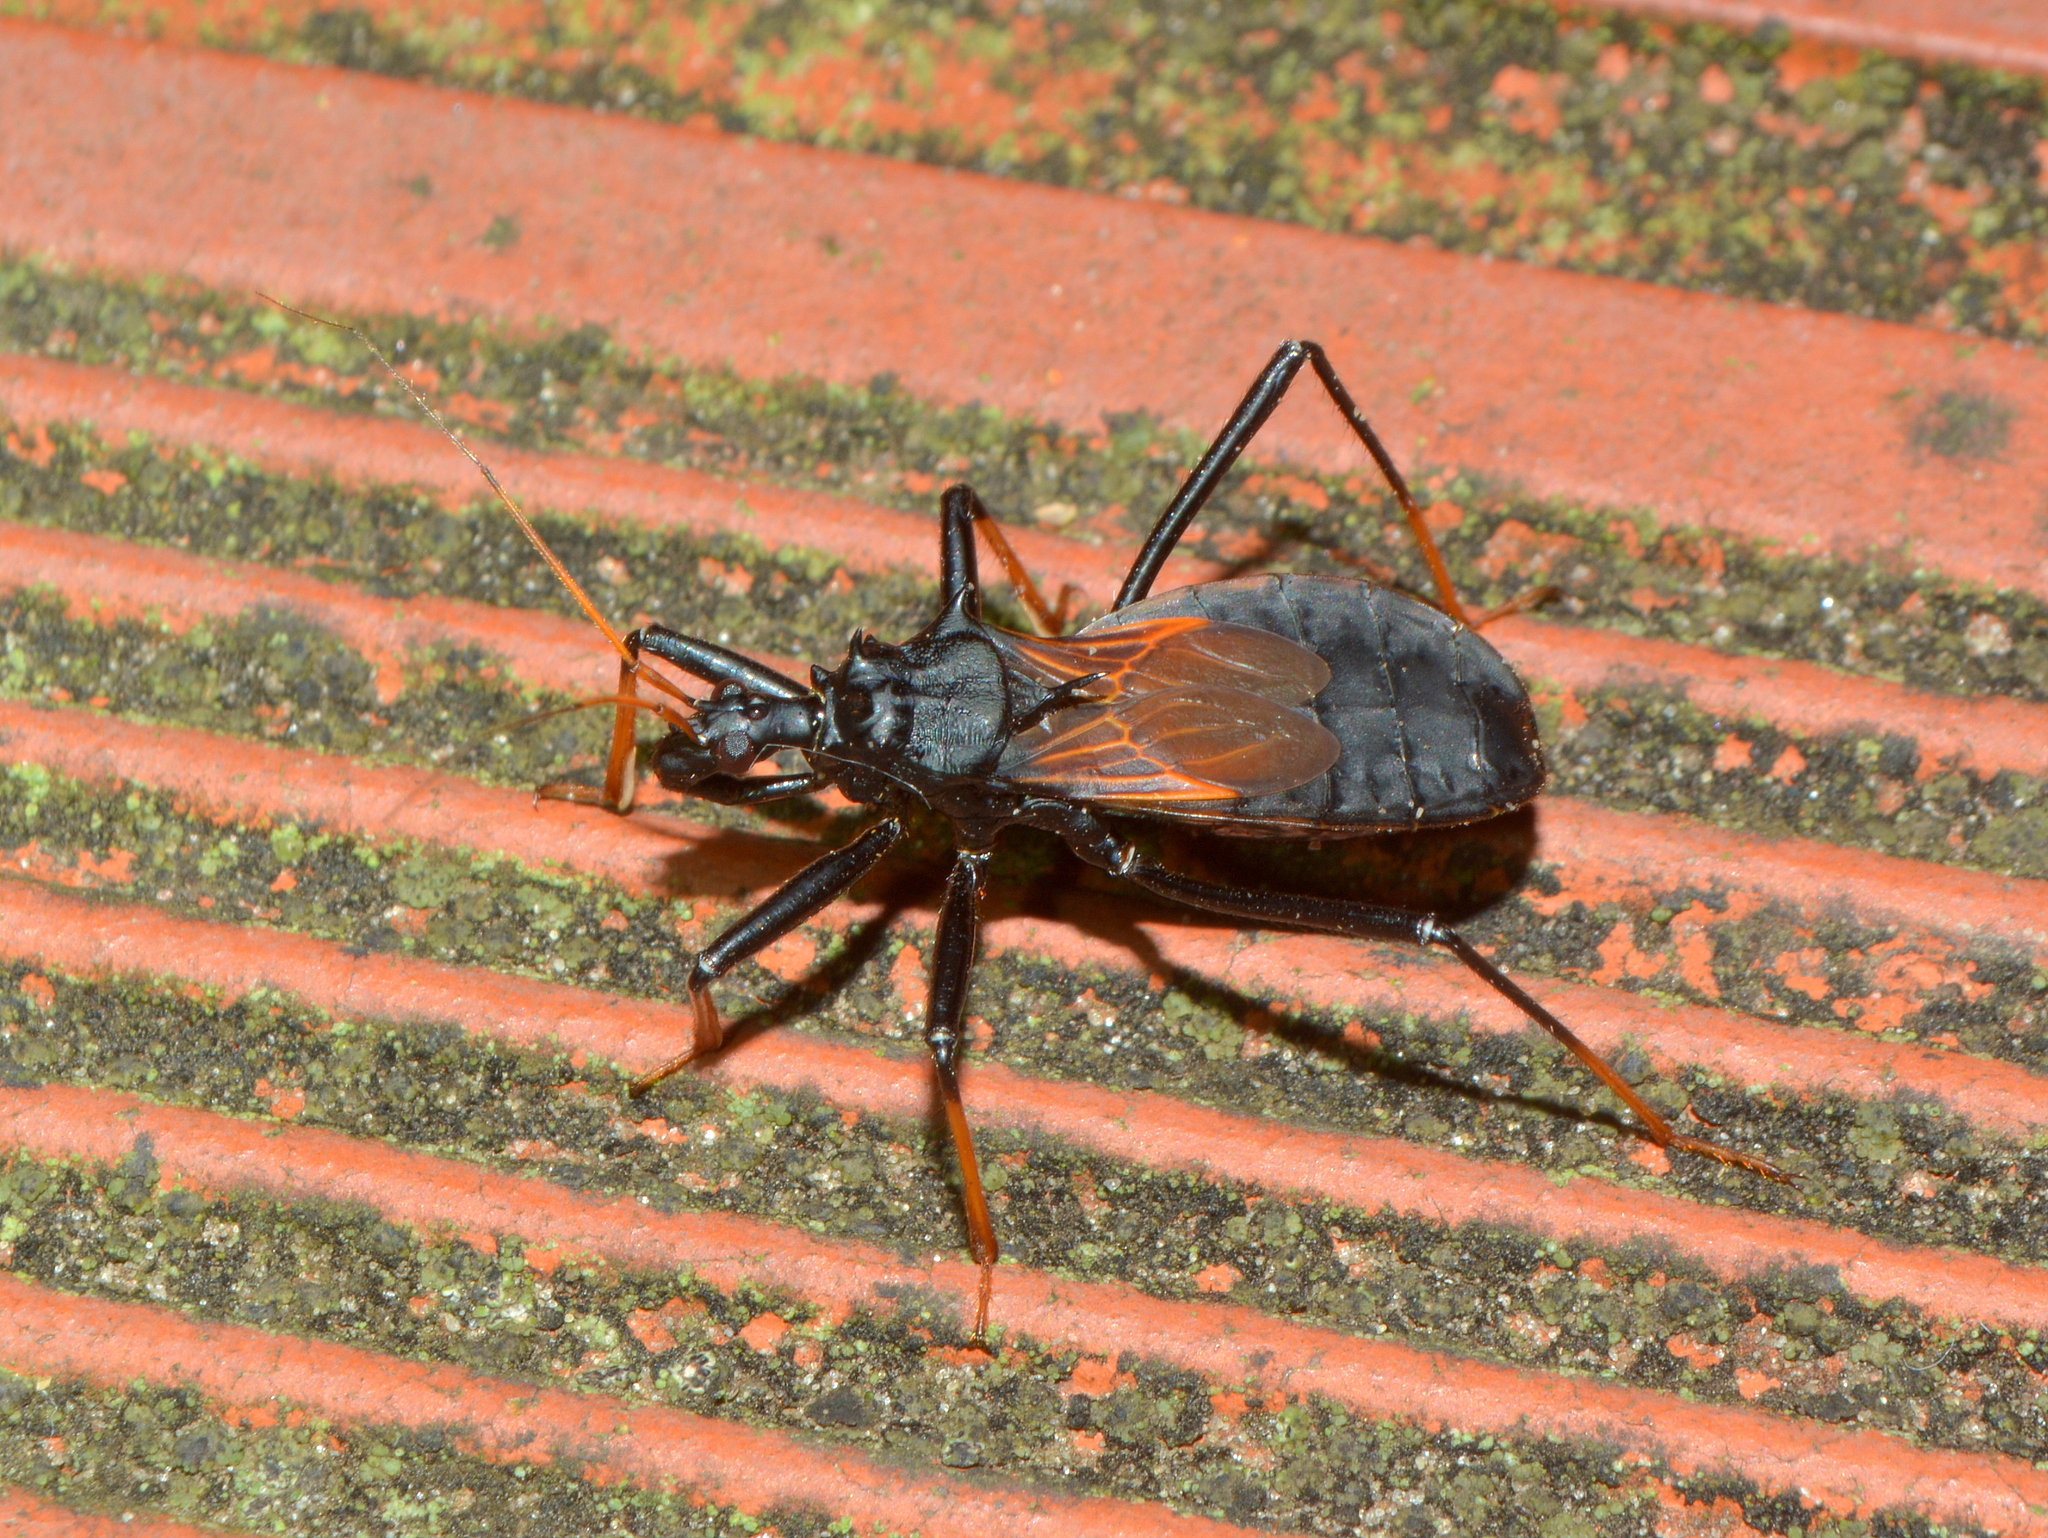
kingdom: Animalia
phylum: Arthropoda
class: Insecta
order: Hemiptera
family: Reduviidae
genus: Zelurus
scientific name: Zelurus femoralis
